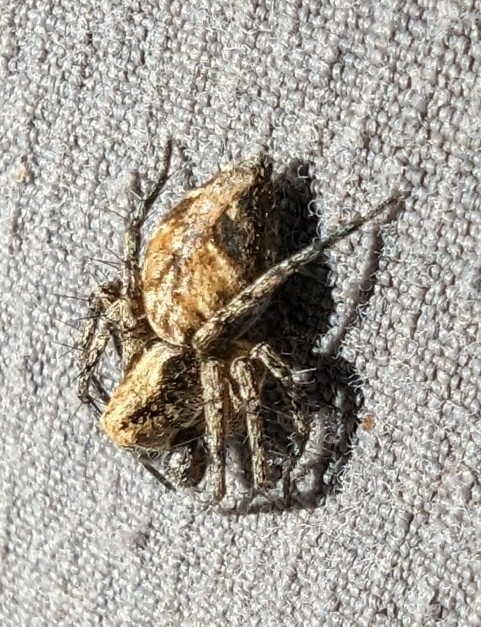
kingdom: Animalia
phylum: Arthropoda
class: Arachnida
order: Araneae
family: Oxyopidae
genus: Oxyopes
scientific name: Oxyopes scalaris
